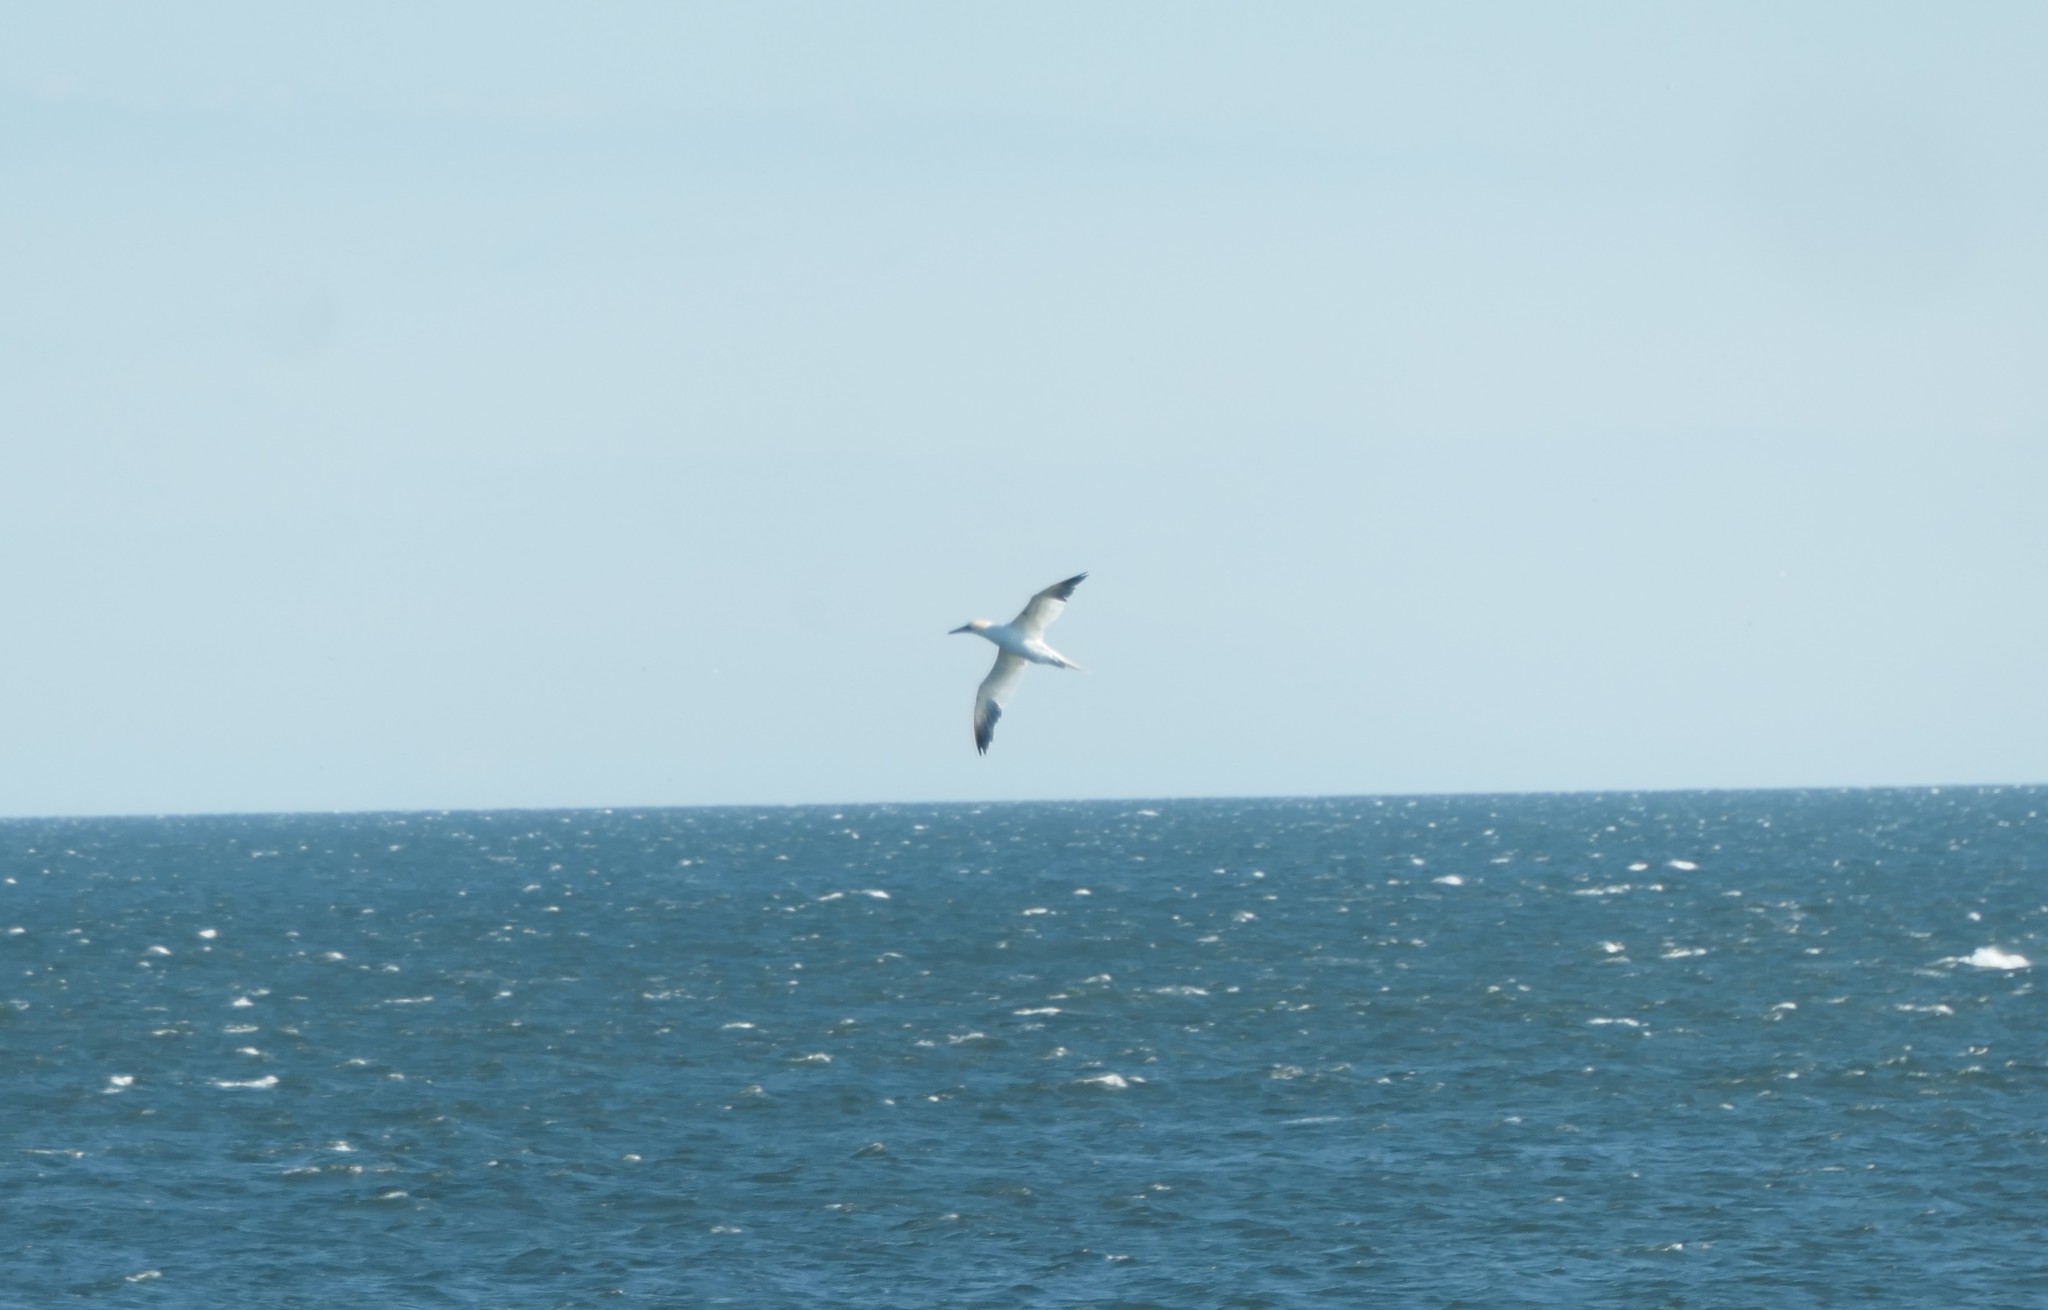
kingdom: Animalia
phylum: Chordata
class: Aves
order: Suliformes
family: Sulidae
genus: Morus
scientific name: Morus bassanus
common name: Northern gannet
